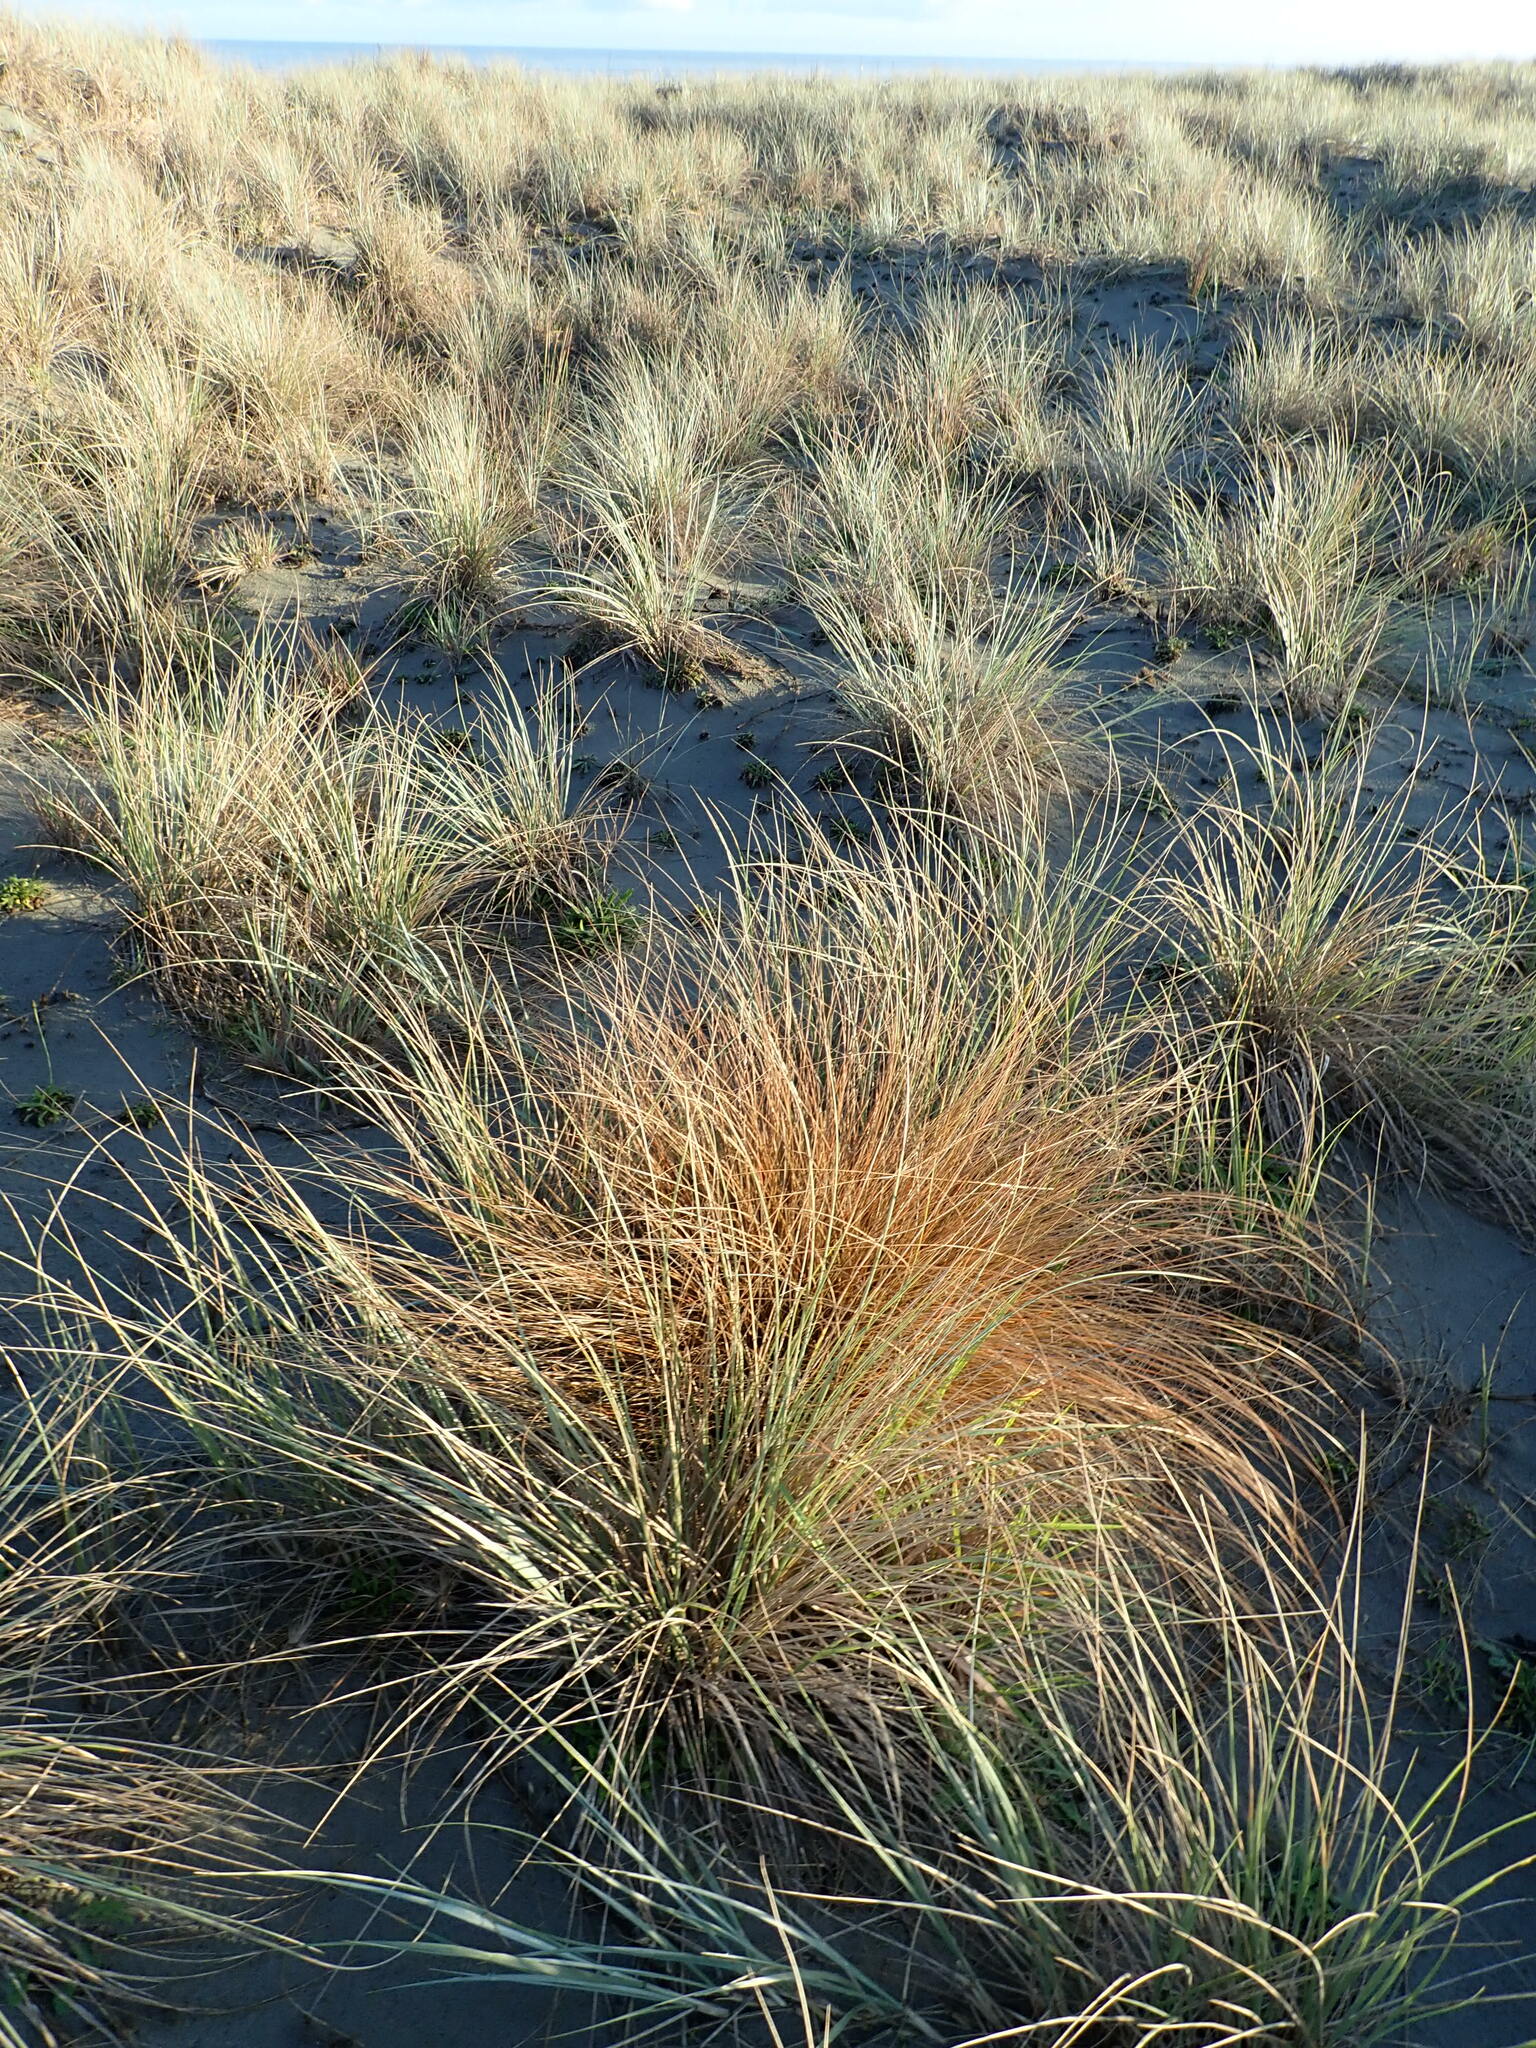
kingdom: Plantae
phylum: Tracheophyta
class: Liliopsida
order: Poales
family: Cyperaceae
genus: Carex
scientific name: Carex testacea
